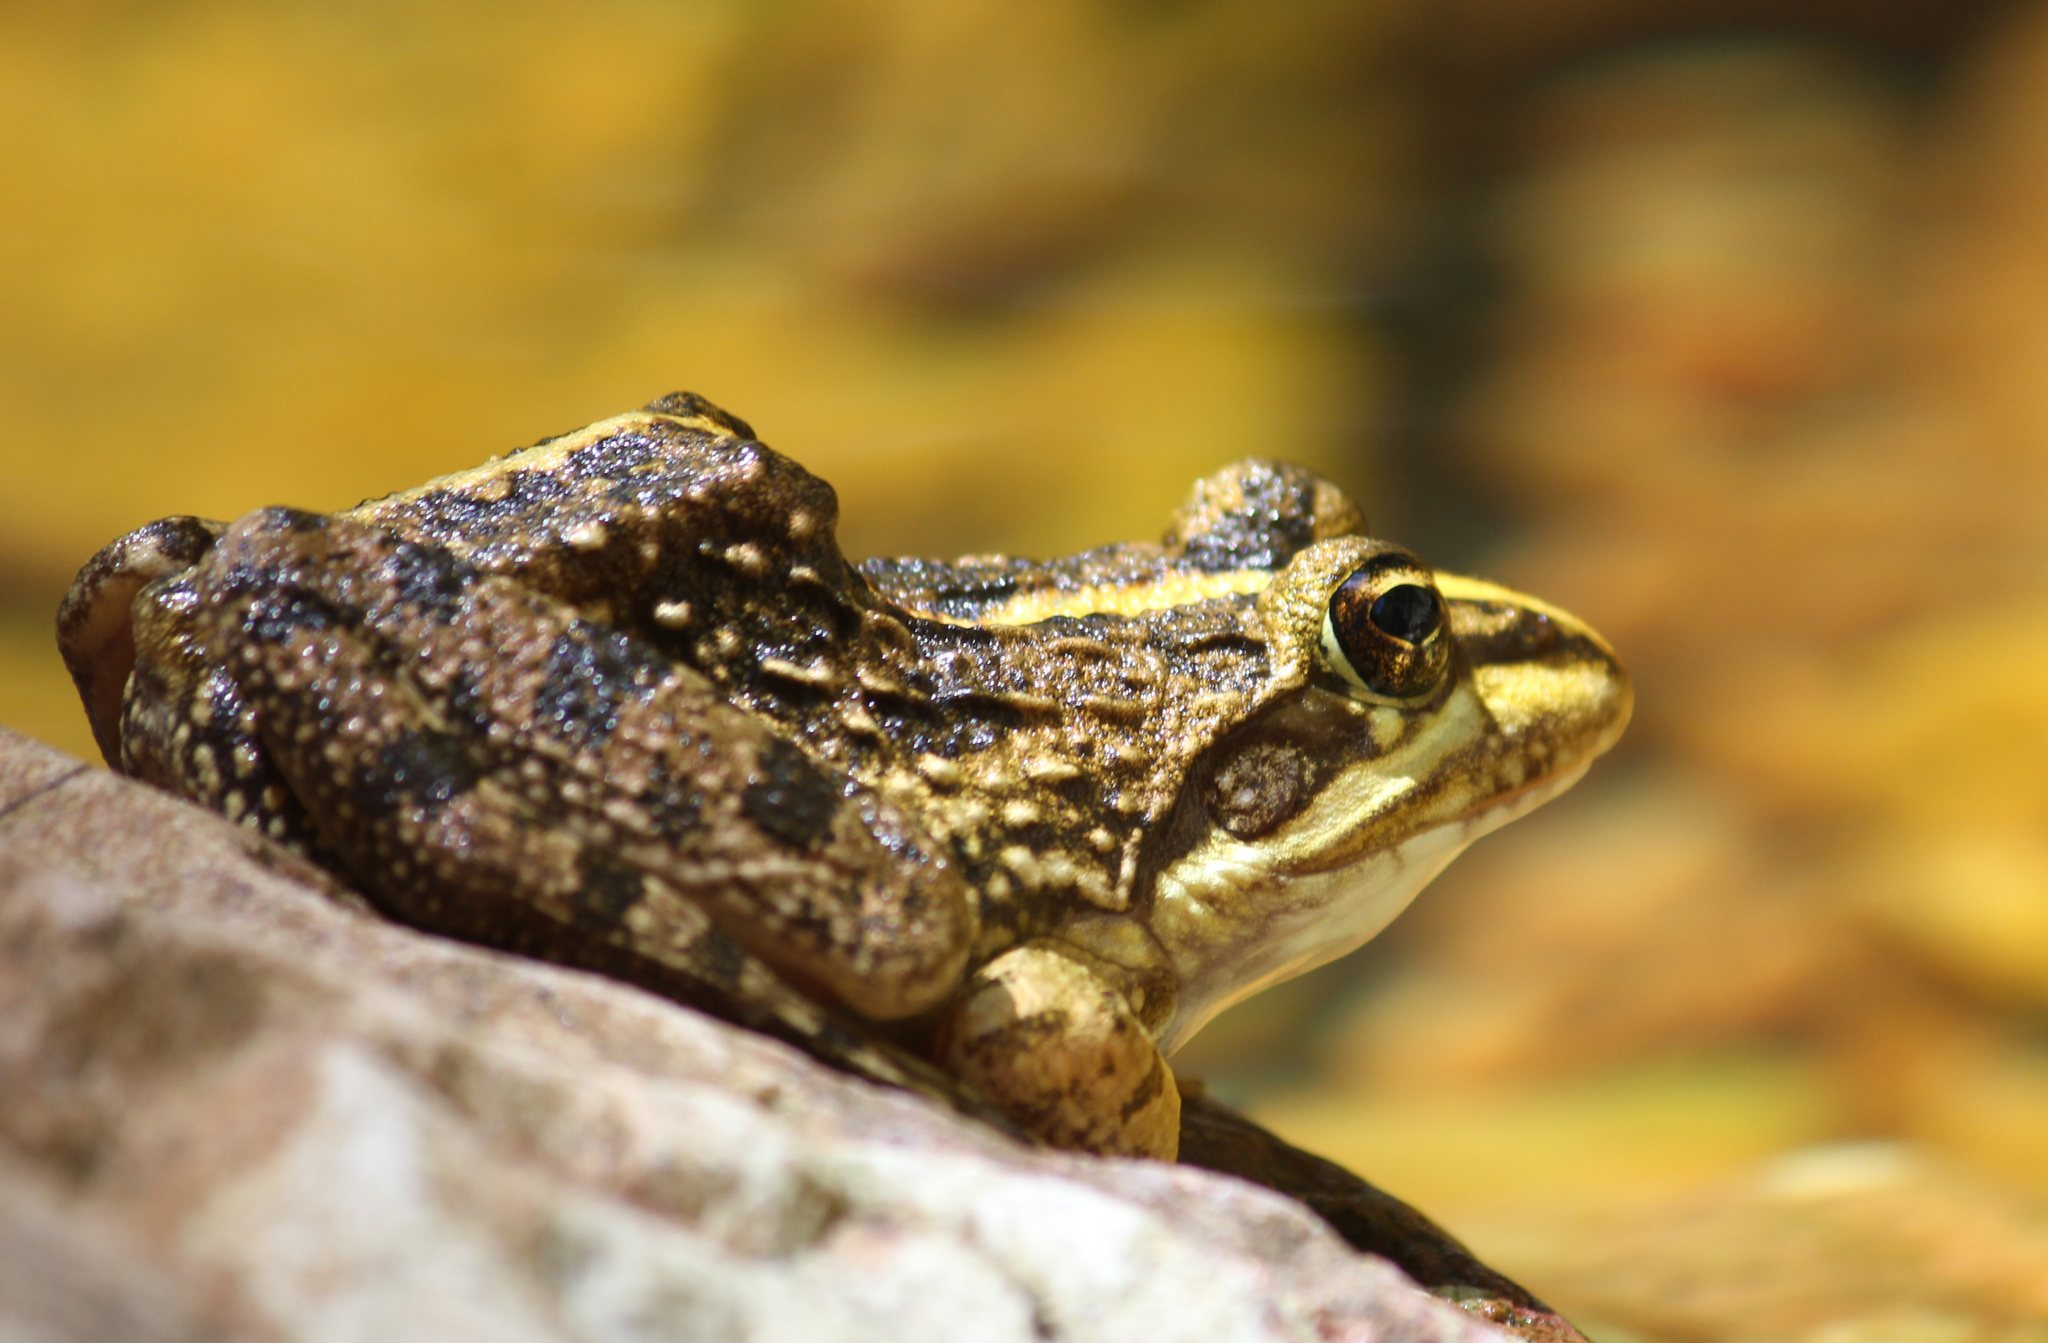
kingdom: Animalia
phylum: Chordata
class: Amphibia
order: Anura
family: Pyxicephalidae
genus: Amietia
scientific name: Amietia fuscigula
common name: Cape rana
